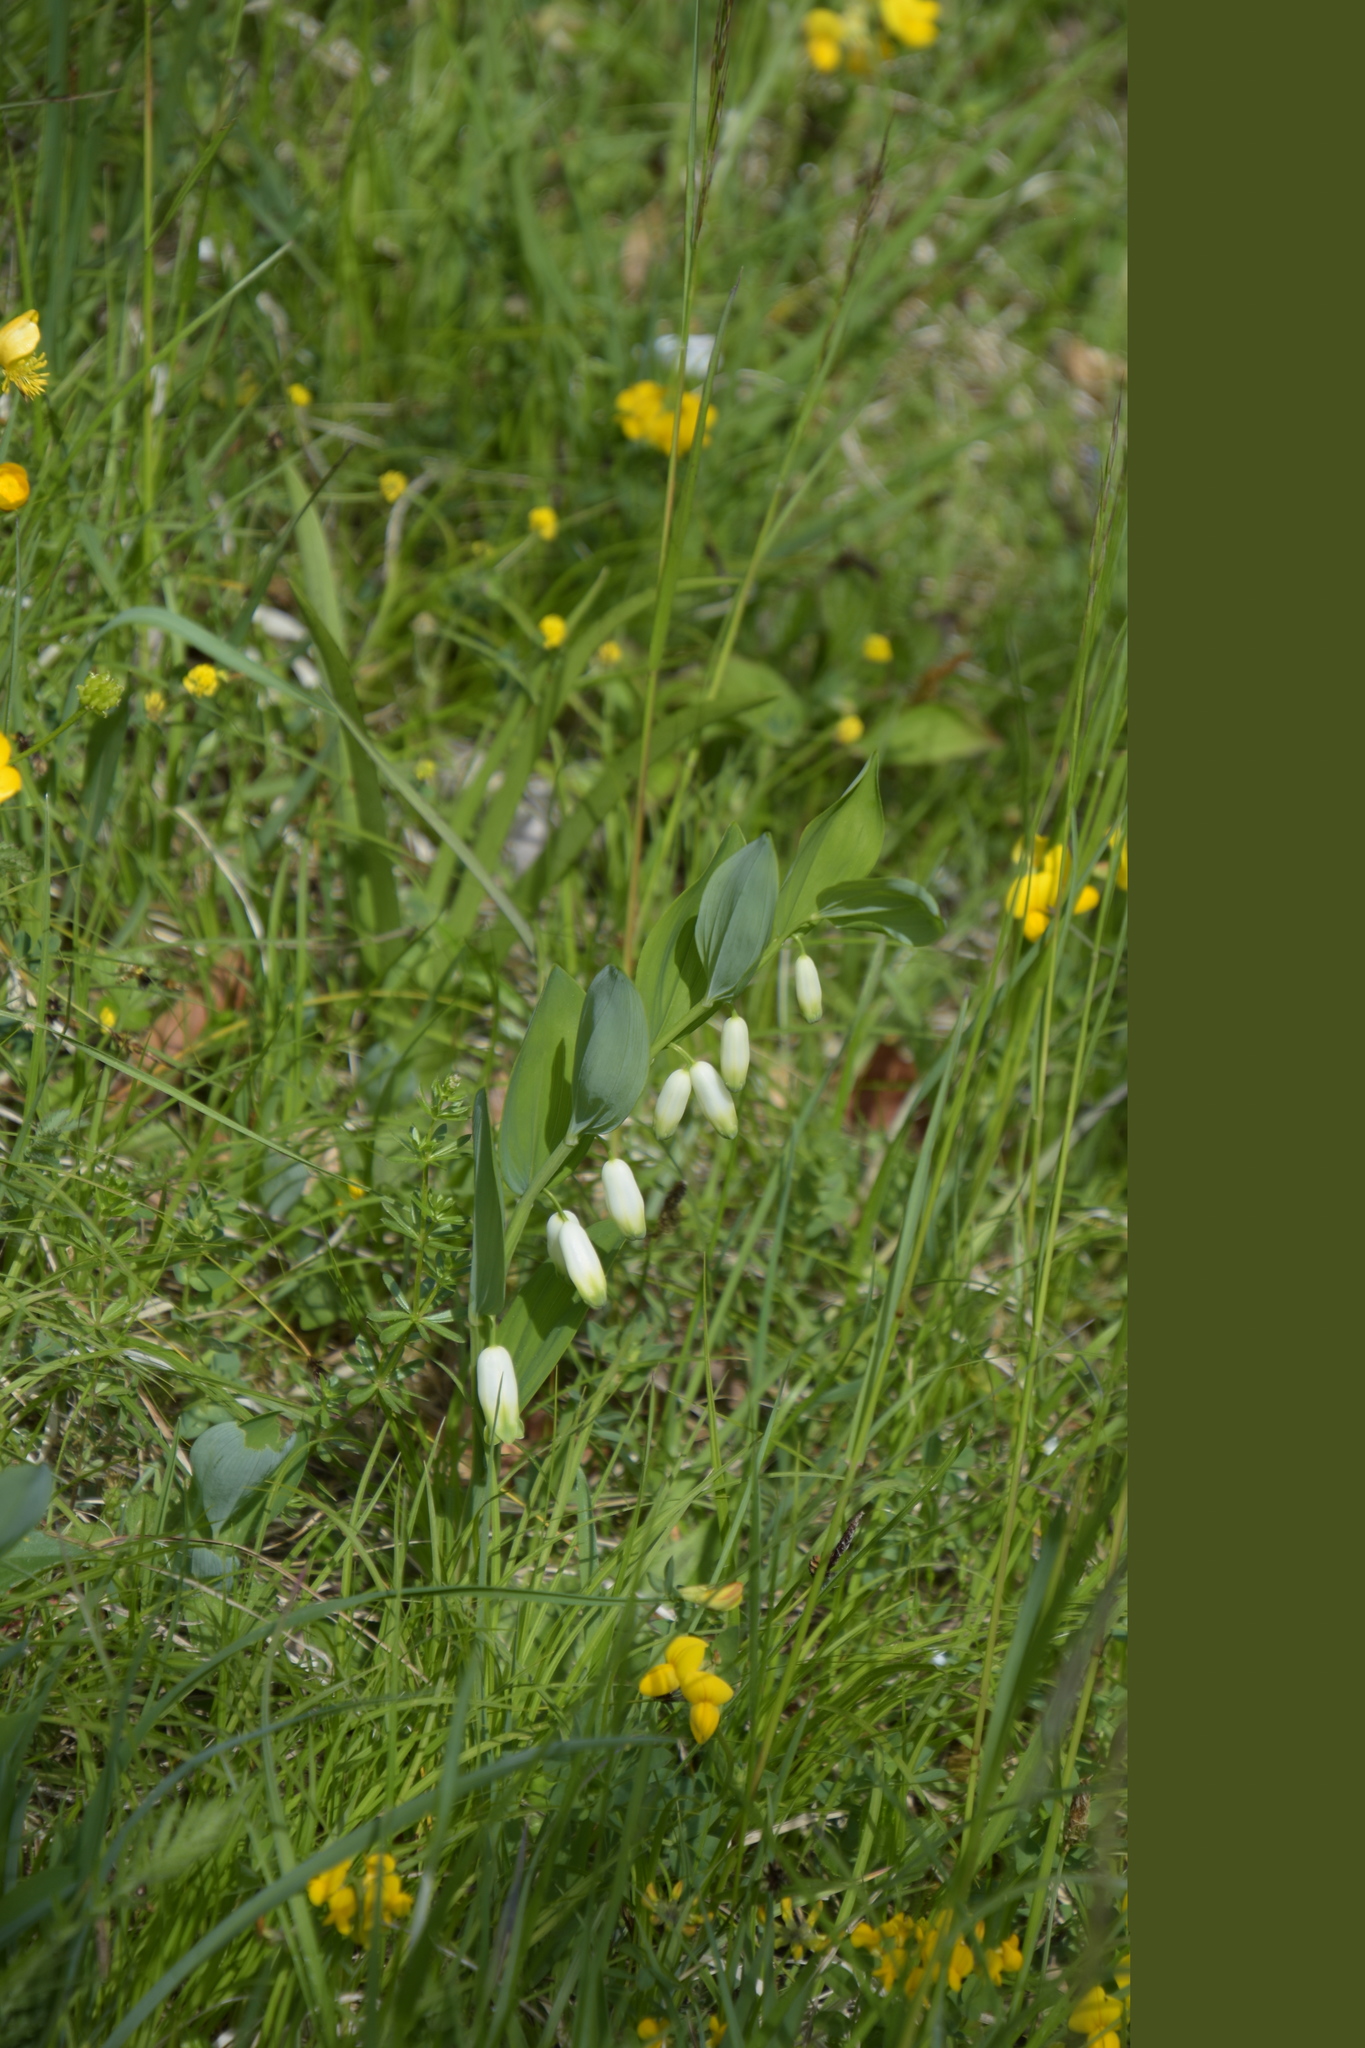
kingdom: Plantae
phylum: Tracheophyta
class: Liliopsida
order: Asparagales
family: Asparagaceae
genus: Polygonatum
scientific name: Polygonatum odoratum
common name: Angular solomon's-seal
